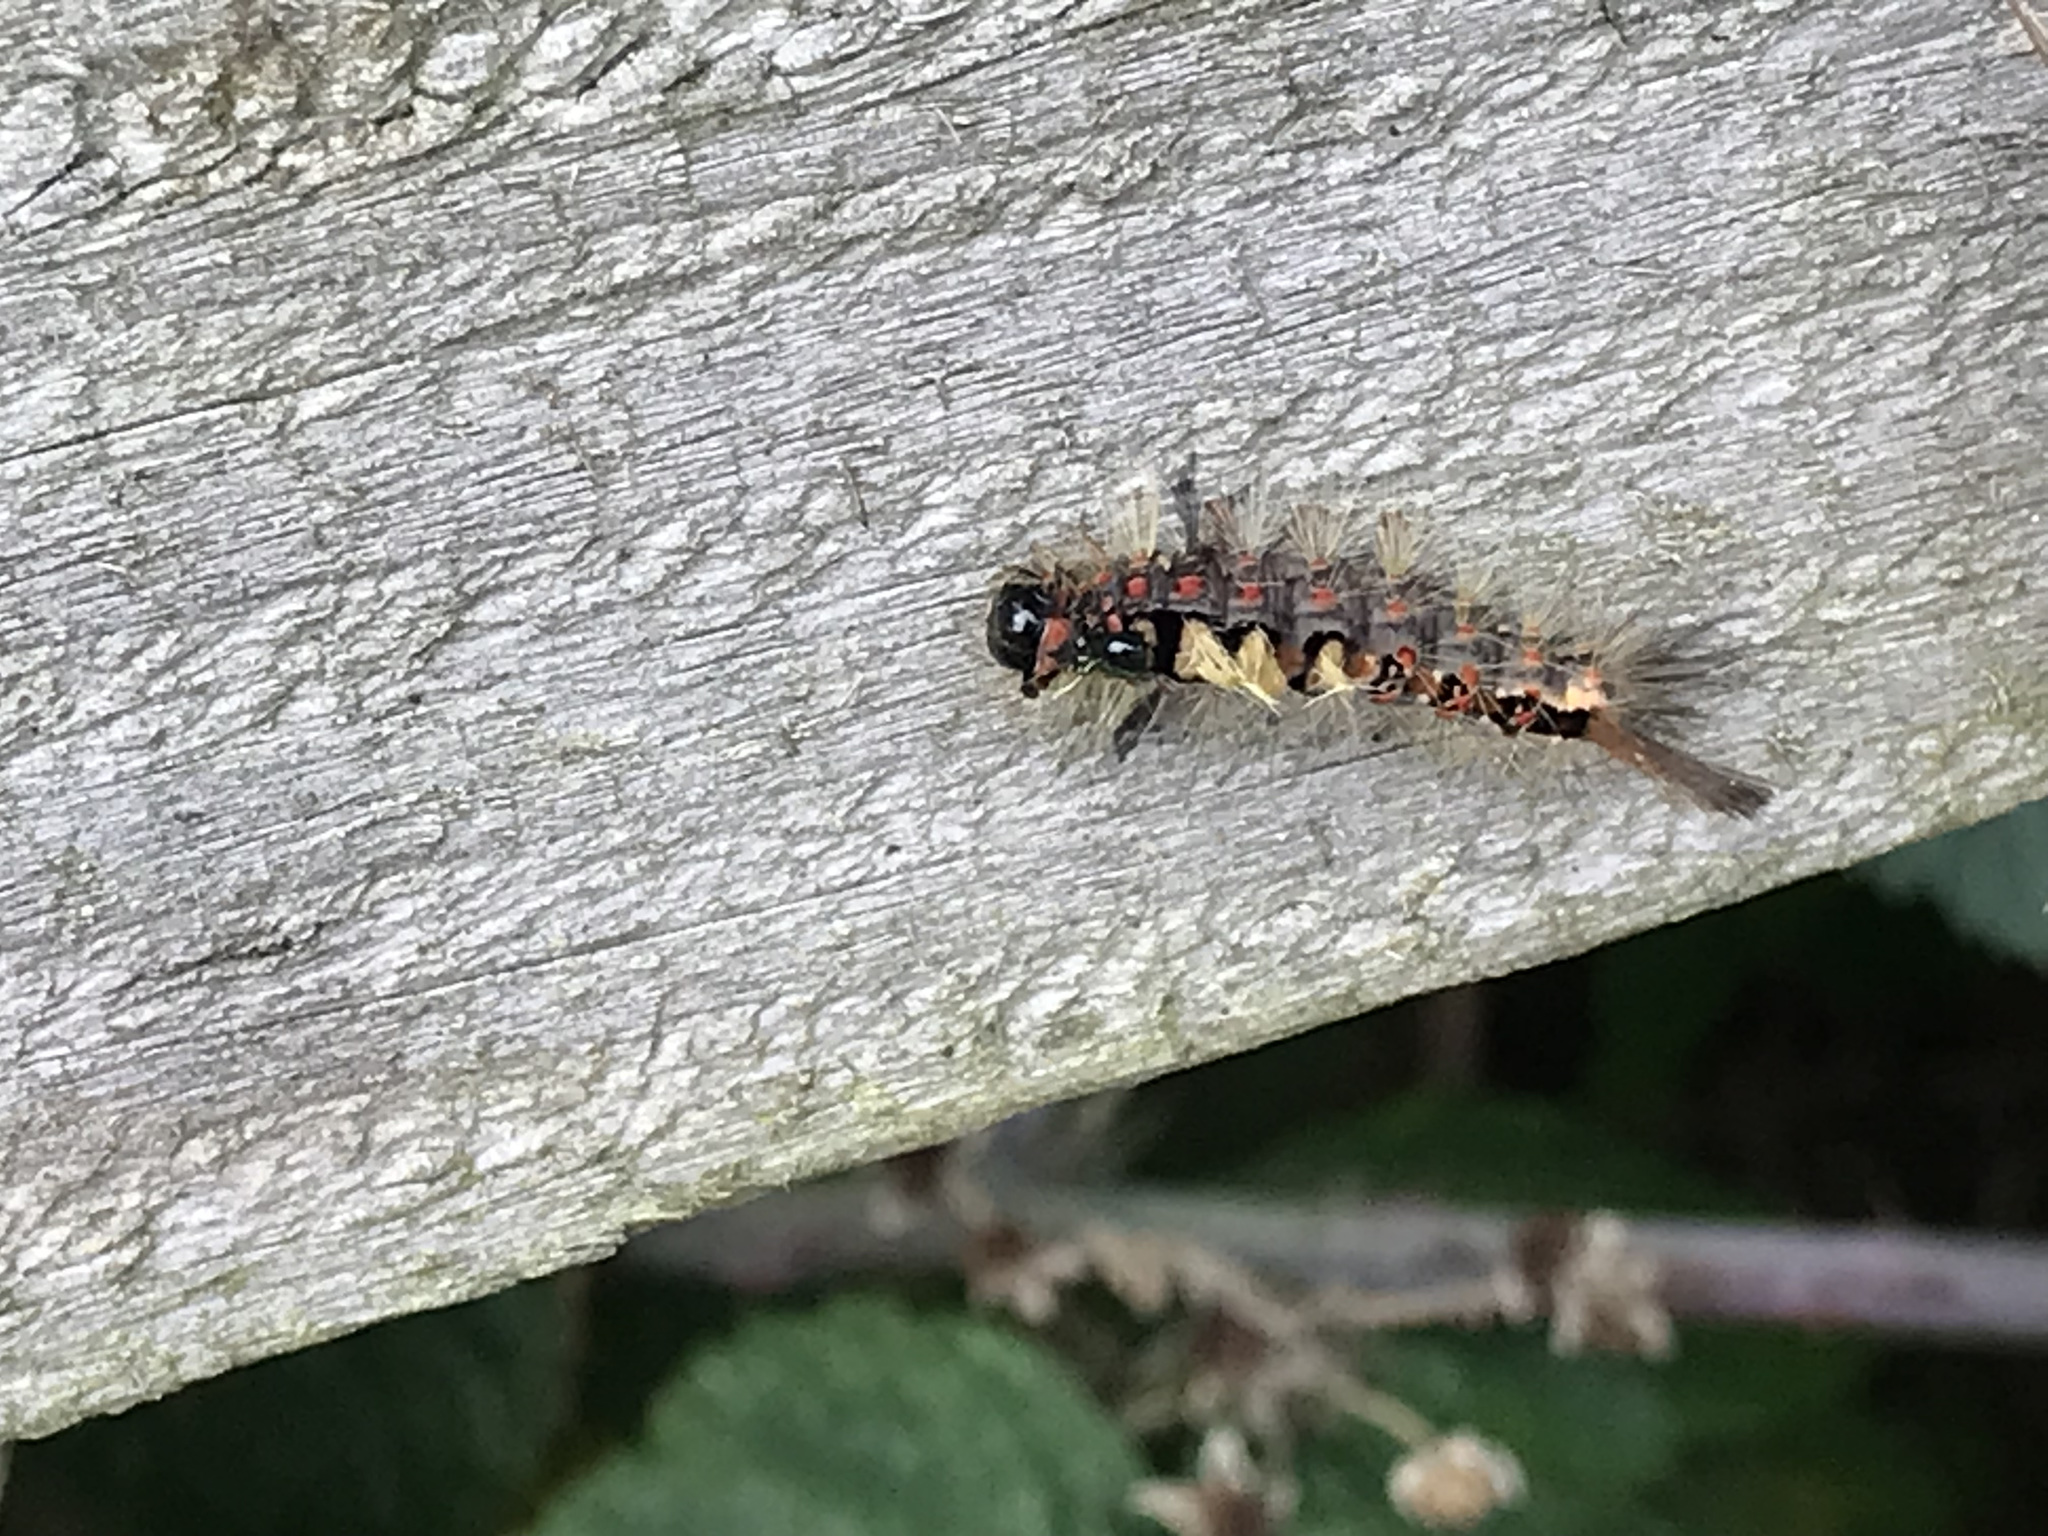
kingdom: Animalia
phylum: Arthropoda
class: Insecta
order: Lepidoptera
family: Erebidae
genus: Orgyia
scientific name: Orgyia antiqua
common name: Vapourer
